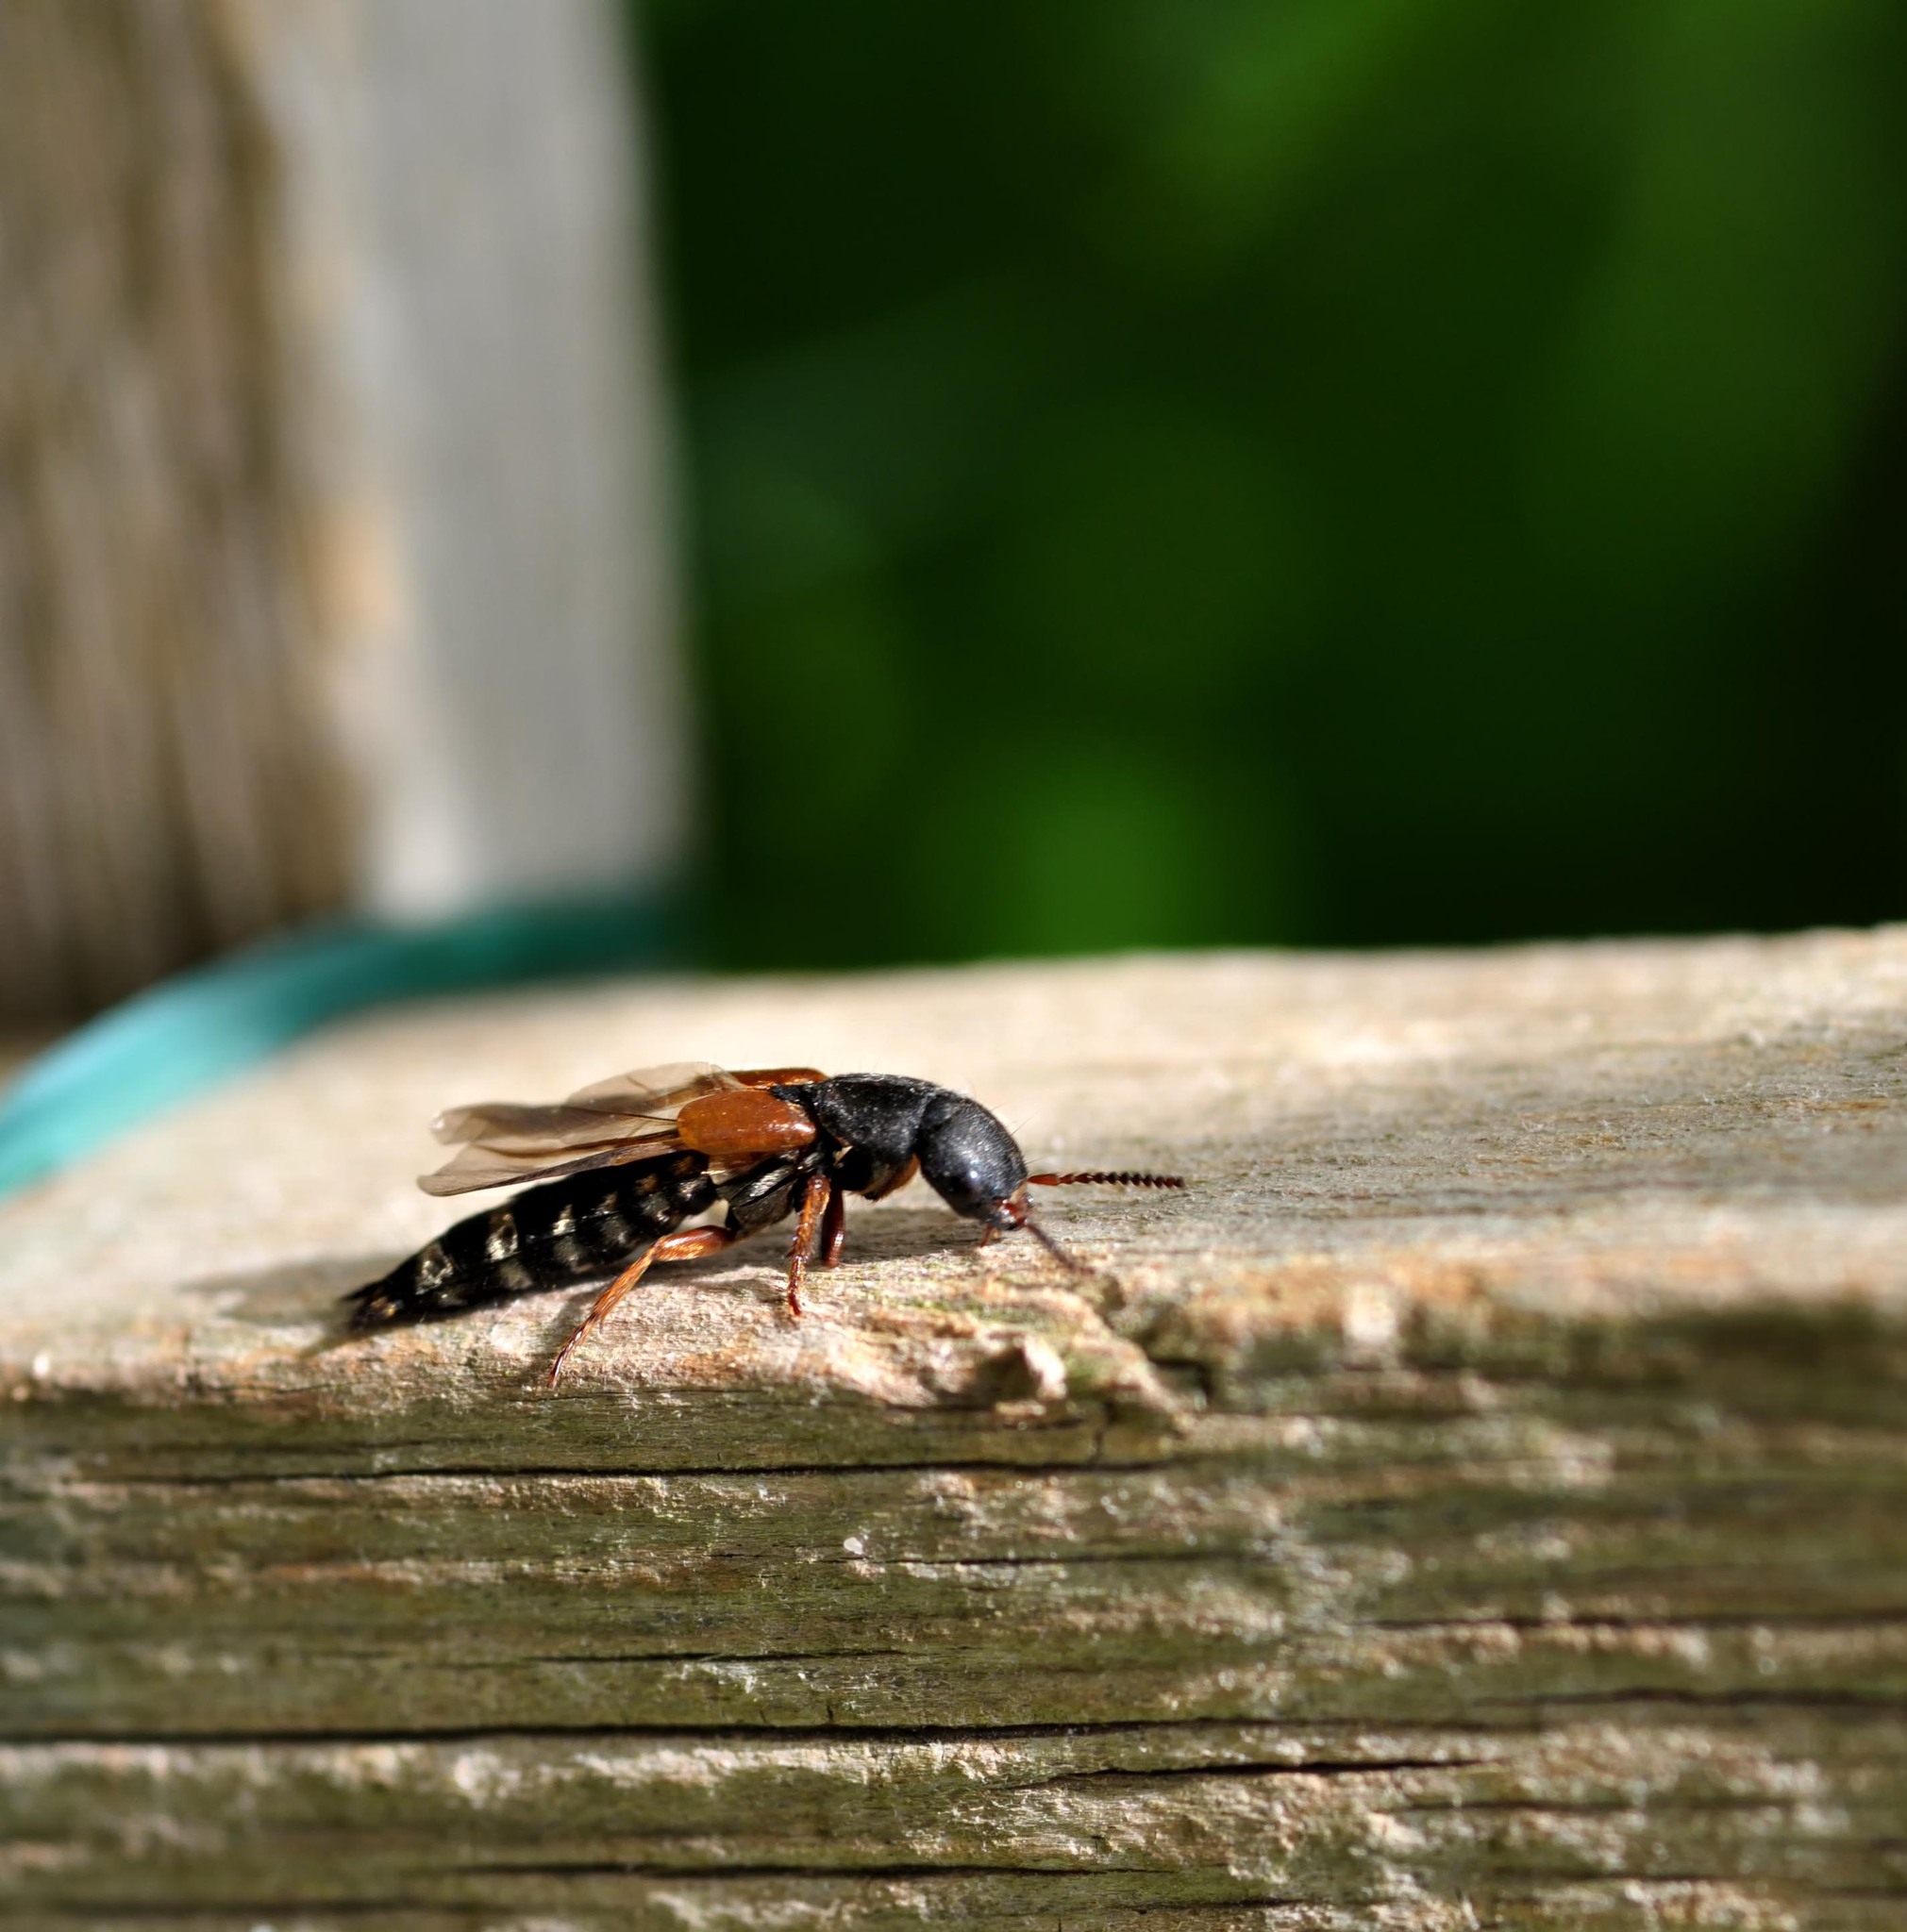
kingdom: Animalia
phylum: Arthropoda
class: Insecta
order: Coleoptera
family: Staphylinidae
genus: Platydracus
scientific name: Platydracus stercorarius
